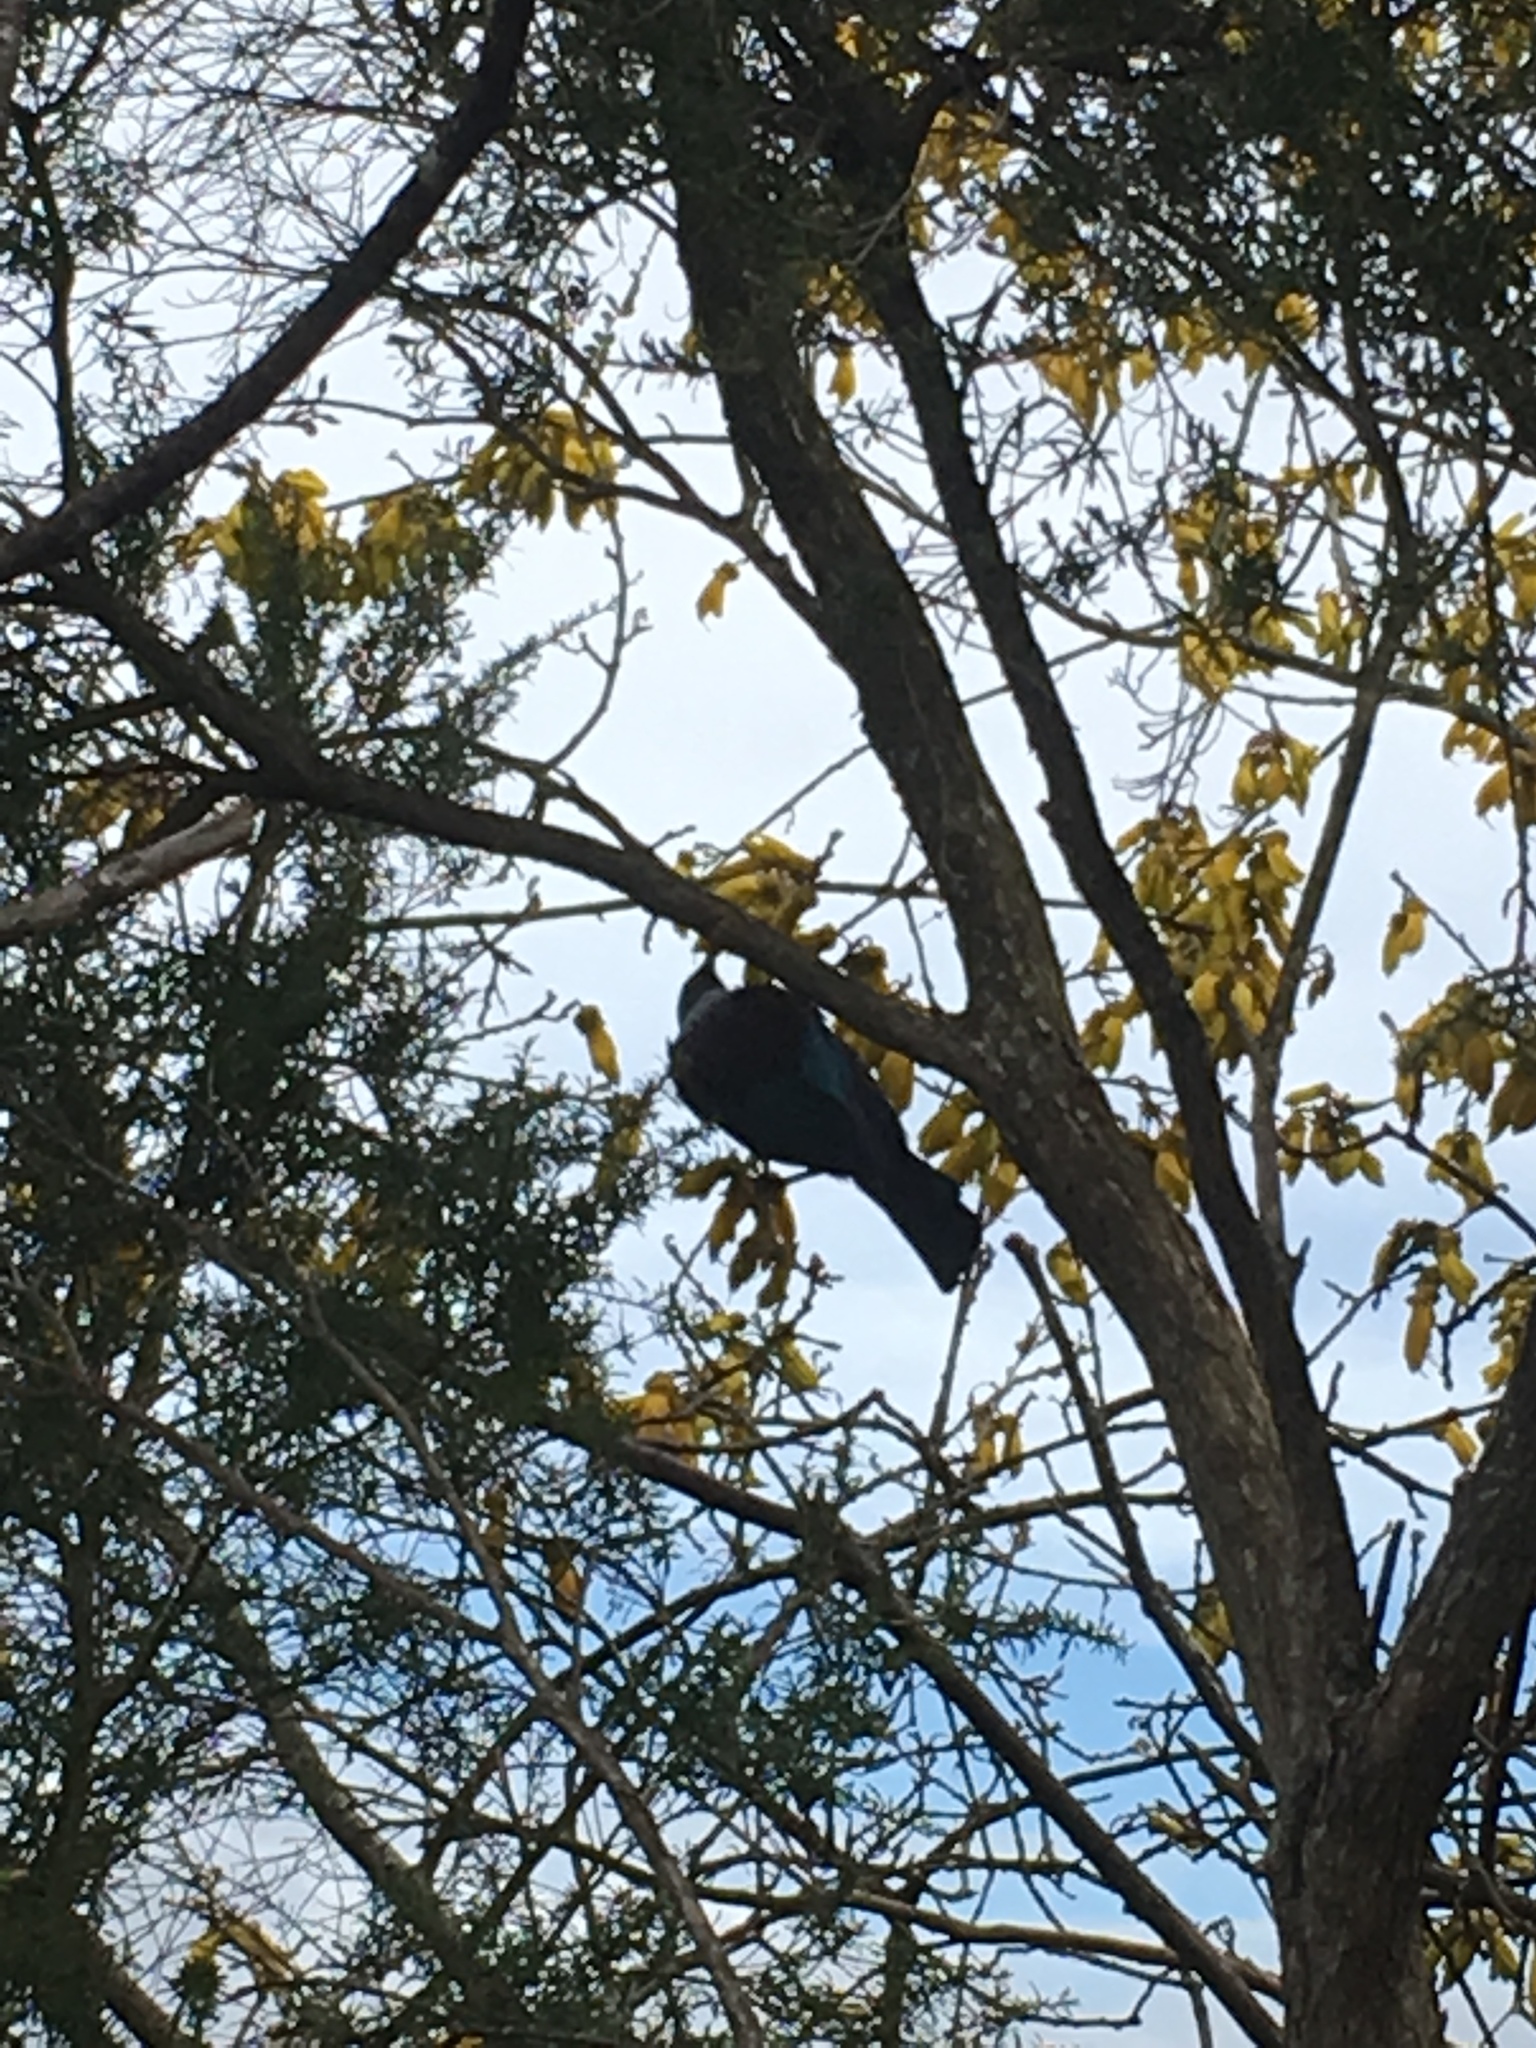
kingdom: Animalia
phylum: Chordata
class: Aves
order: Passeriformes
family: Meliphagidae
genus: Prosthemadera
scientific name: Prosthemadera novaeseelandiae
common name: Tui
